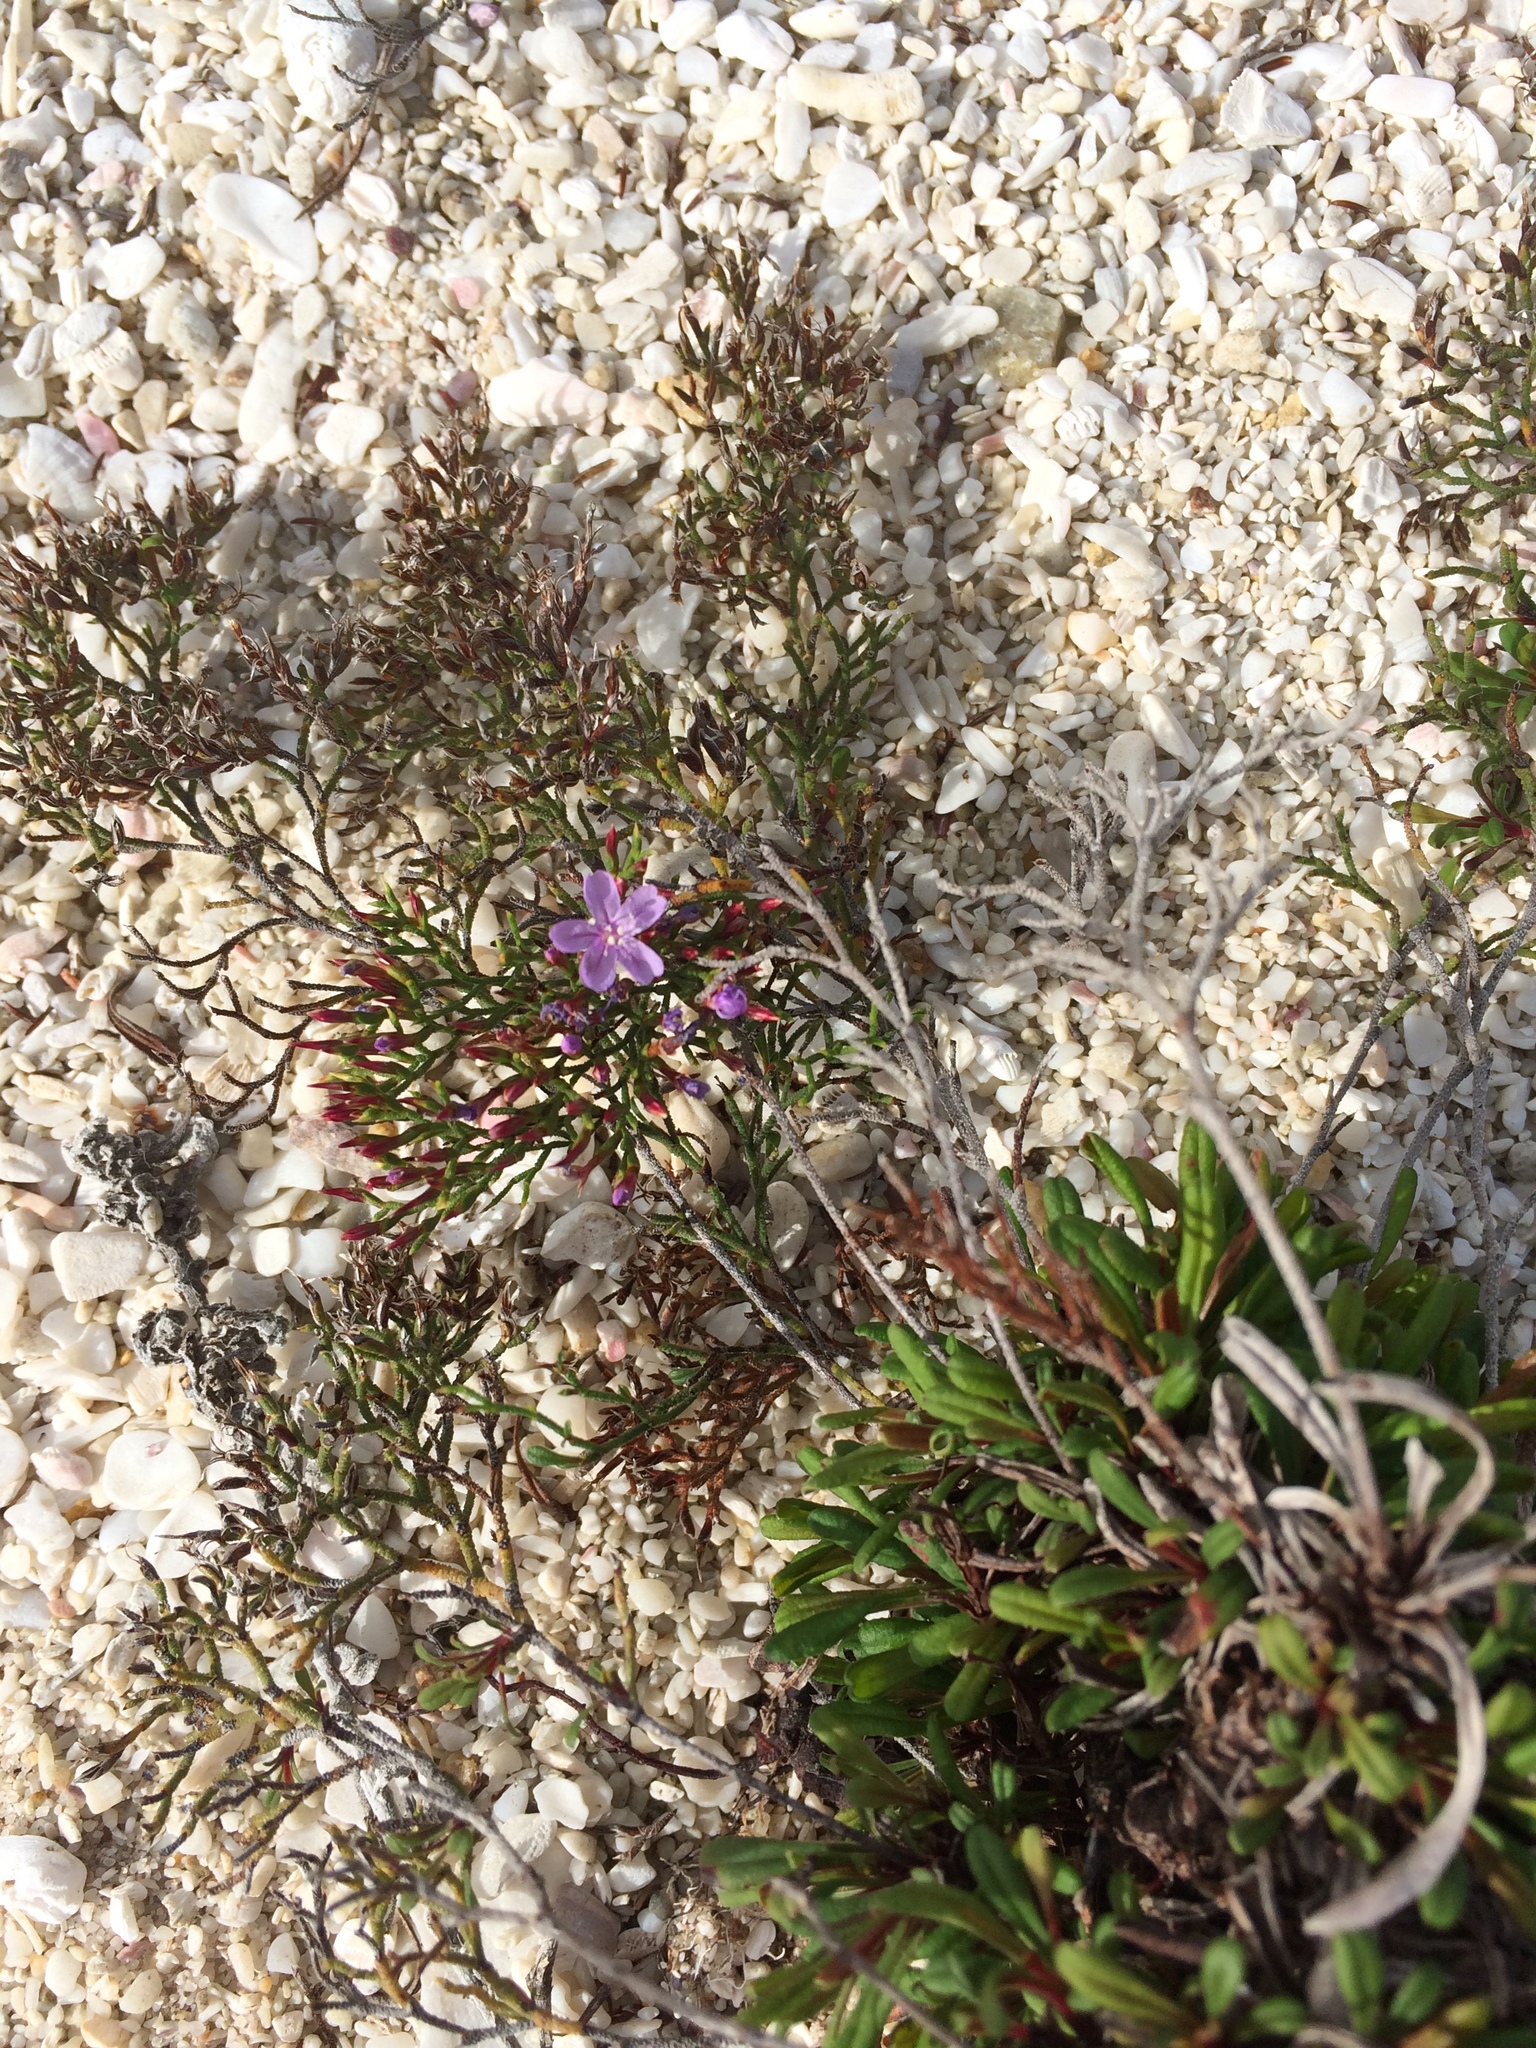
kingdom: Plantae
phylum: Tracheophyta
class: Magnoliopsida
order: Caryophyllales
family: Plumbaginaceae
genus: Limonium
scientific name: Limonium scabrum
